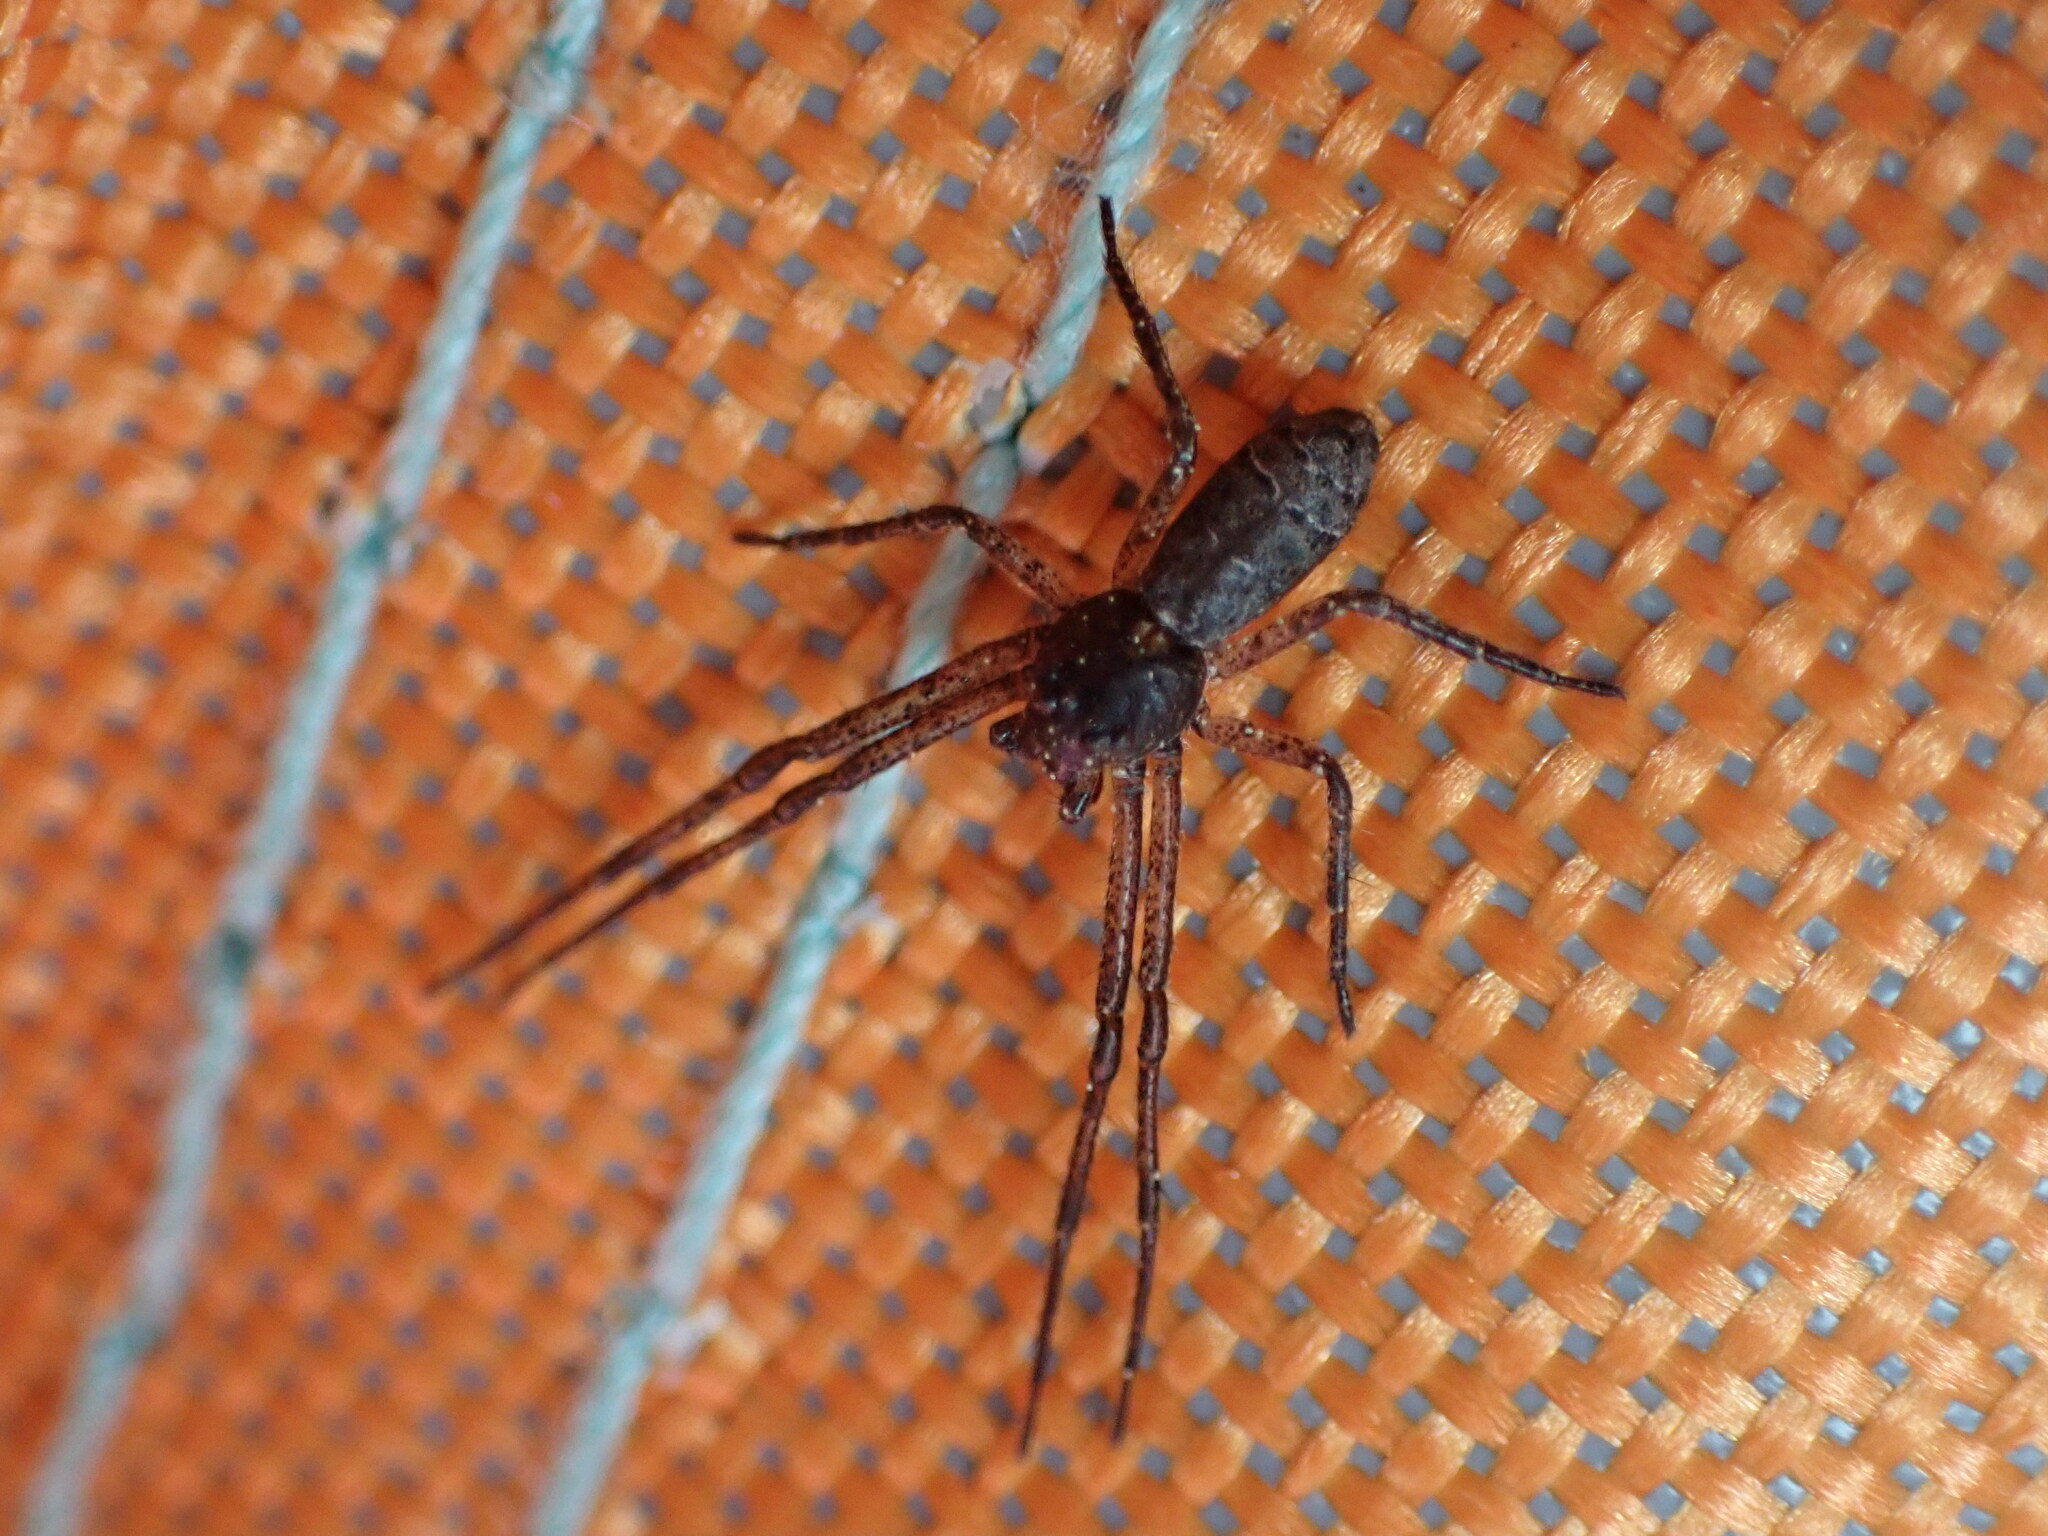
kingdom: Animalia
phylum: Arthropoda
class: Arachnida
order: Araneae
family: Thomisidae
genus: Tmarus
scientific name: Tmarus angulatus
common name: Tuberculated crab spider
